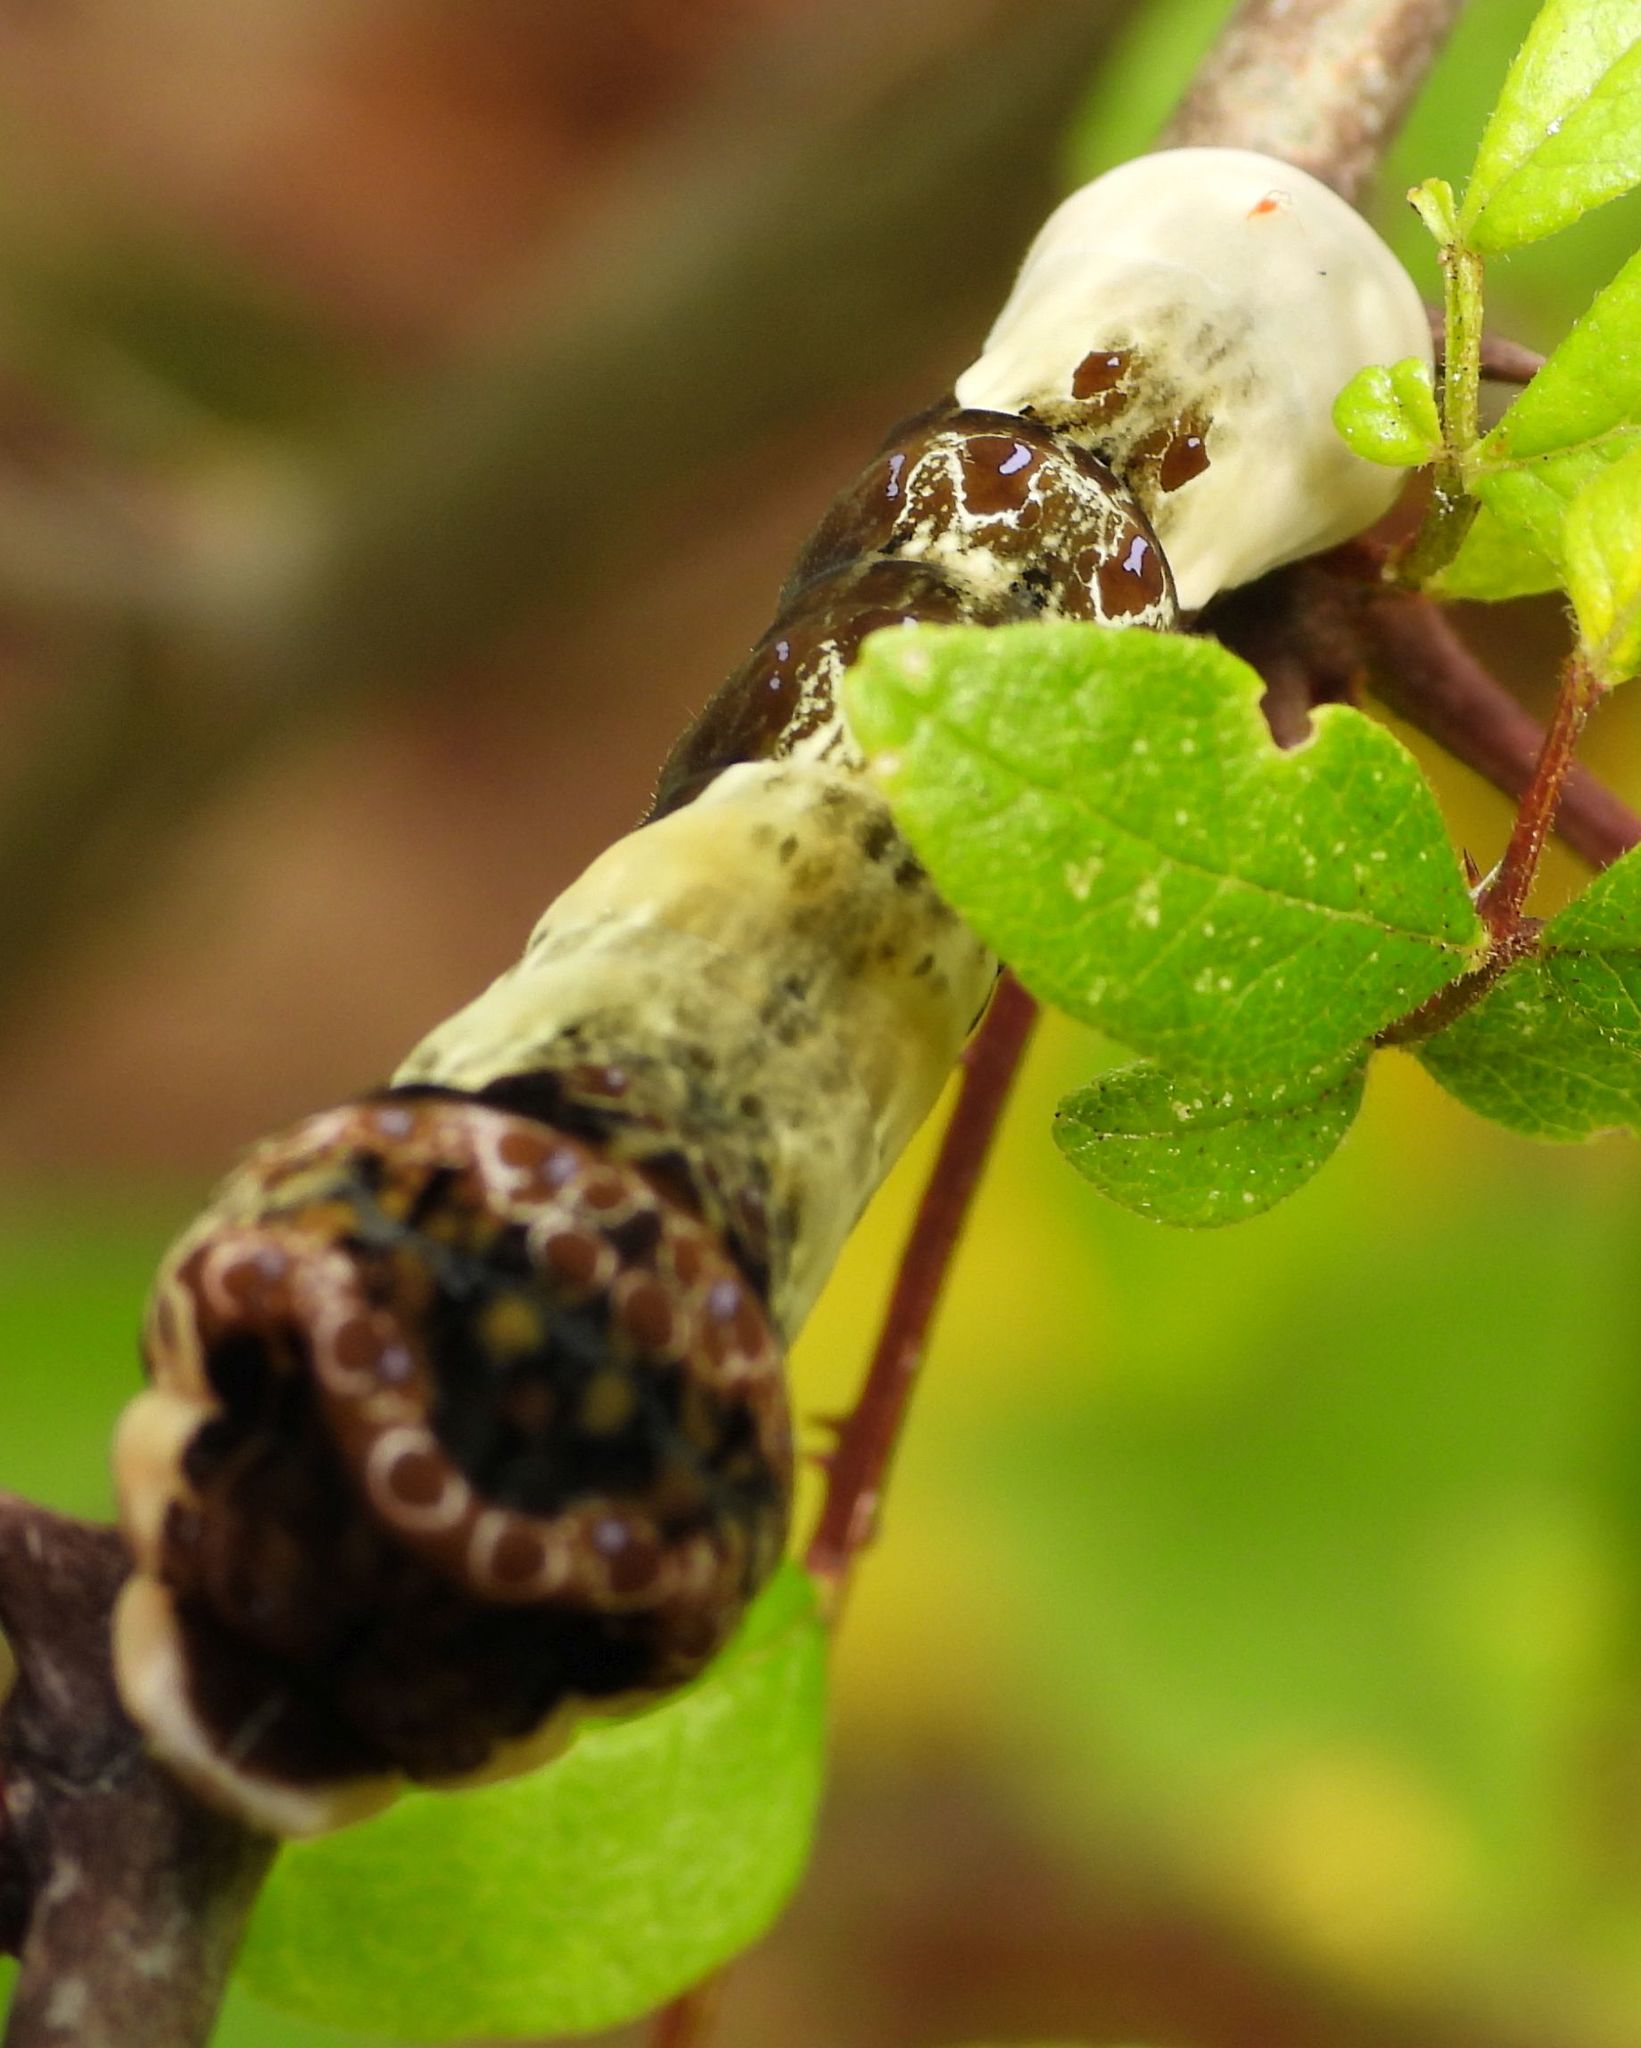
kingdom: Animalia
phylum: Arthropoda
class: Insecta
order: Lepidoptera
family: Papilionidae
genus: Papilio
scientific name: Papilio cresphontes
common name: Giant swallowtail
